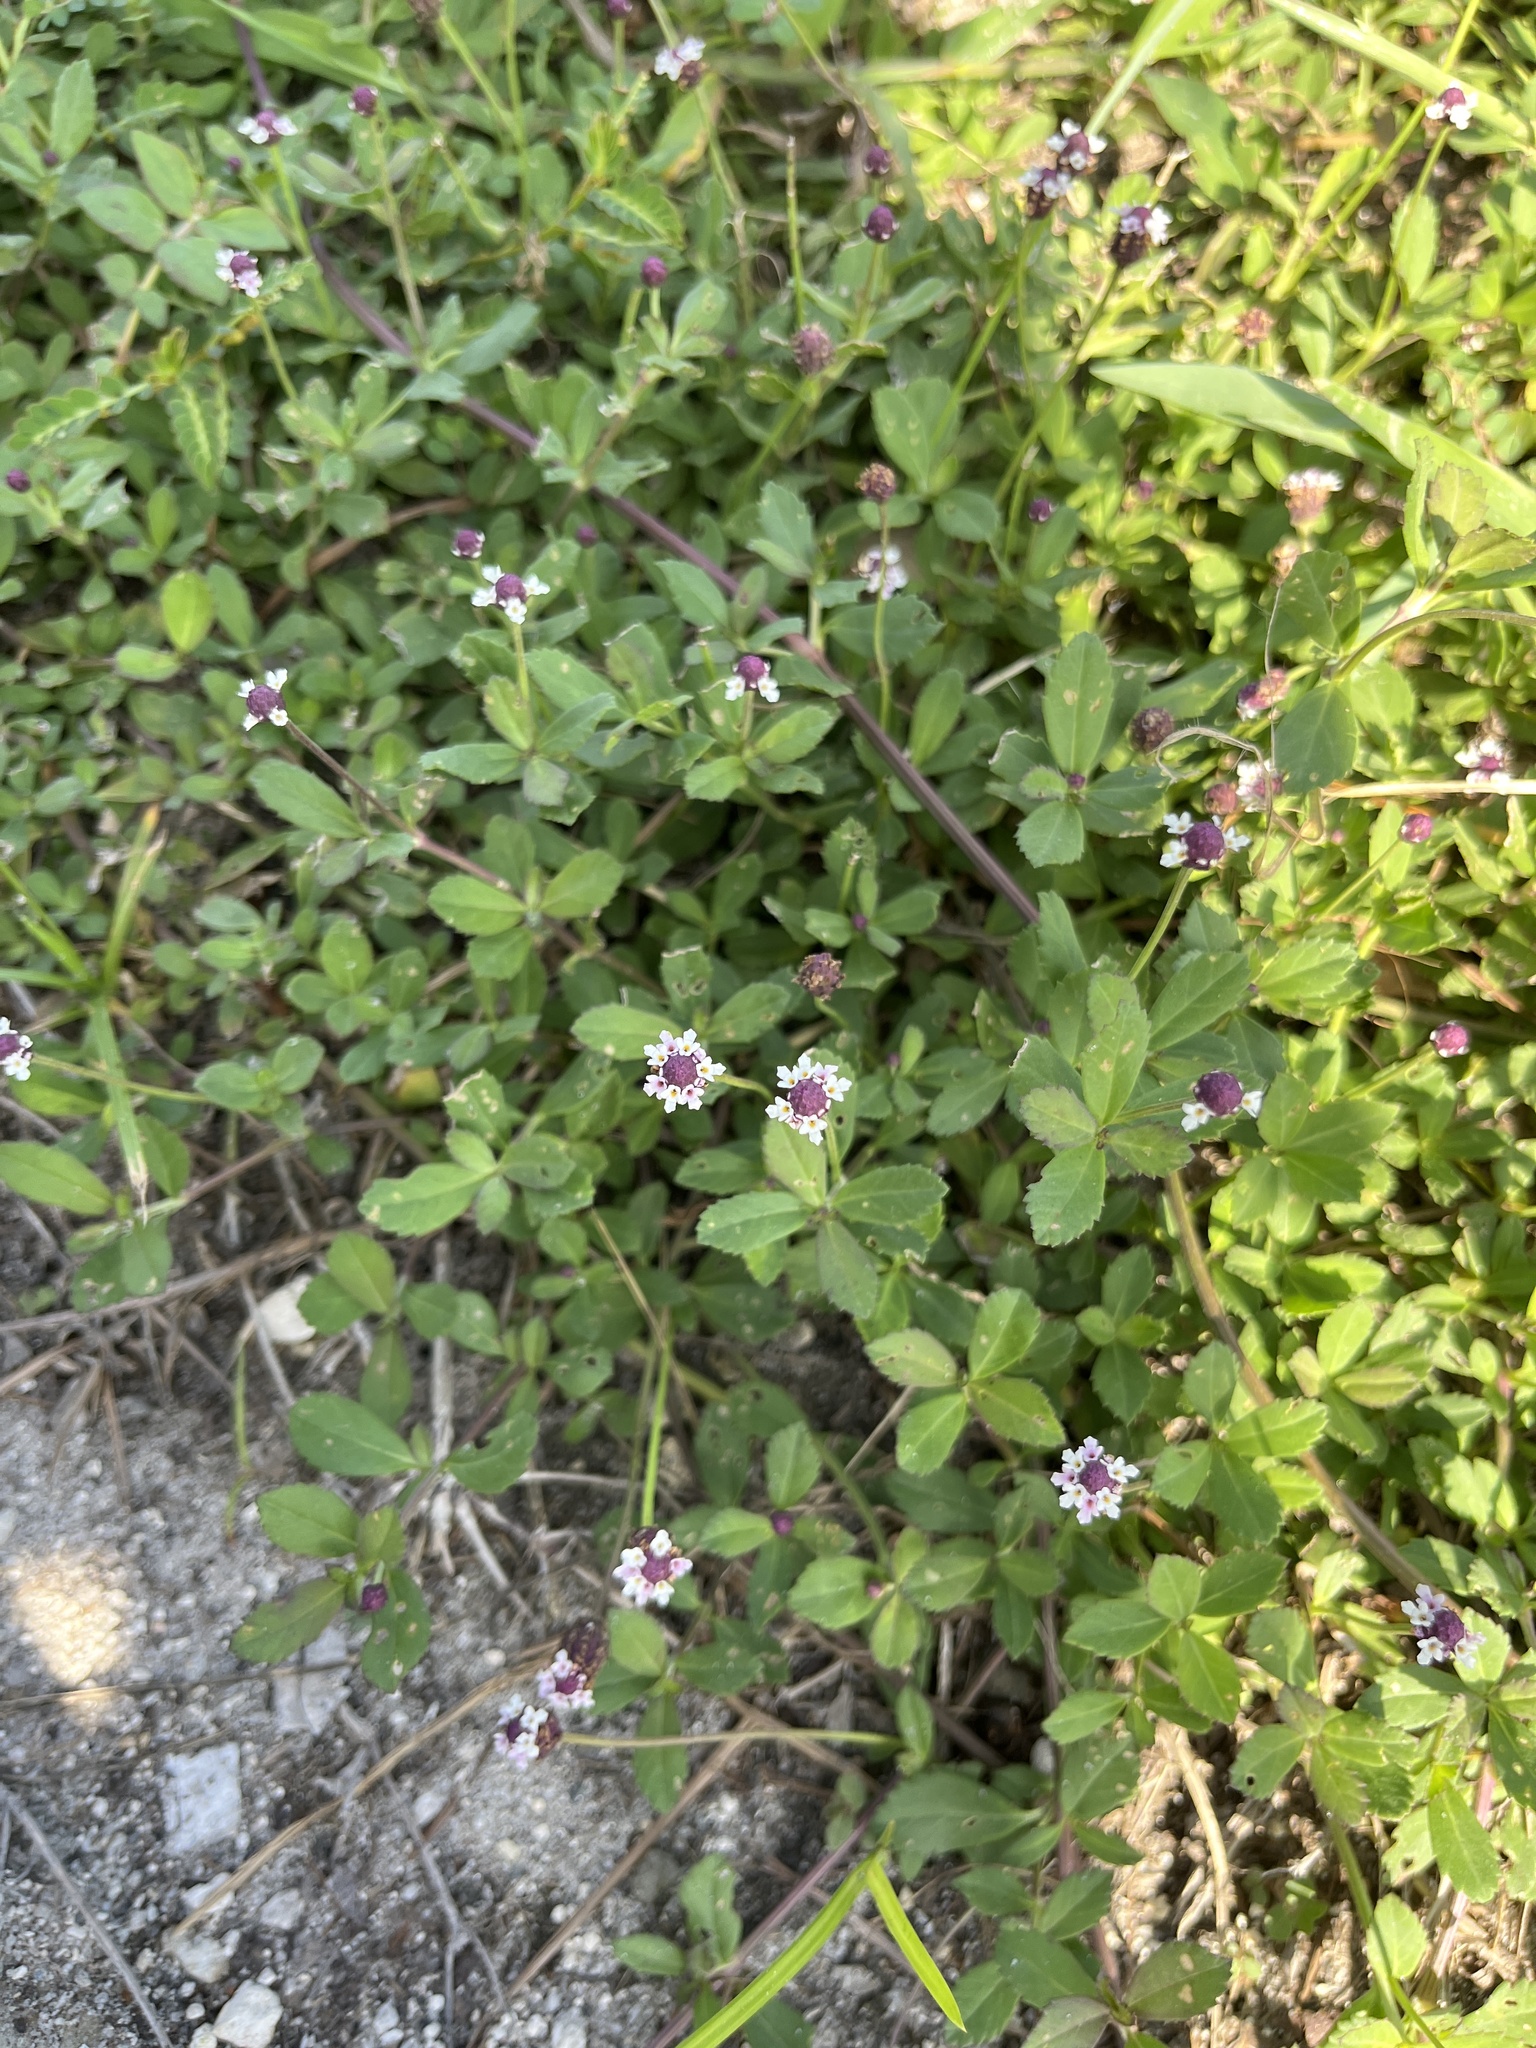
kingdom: Plantae
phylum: Tracheophyta
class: Magnoliopsida
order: Lamiales
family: Verbenaceae
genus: Phyla
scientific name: Phyla nodiflora
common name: Frogfruit
